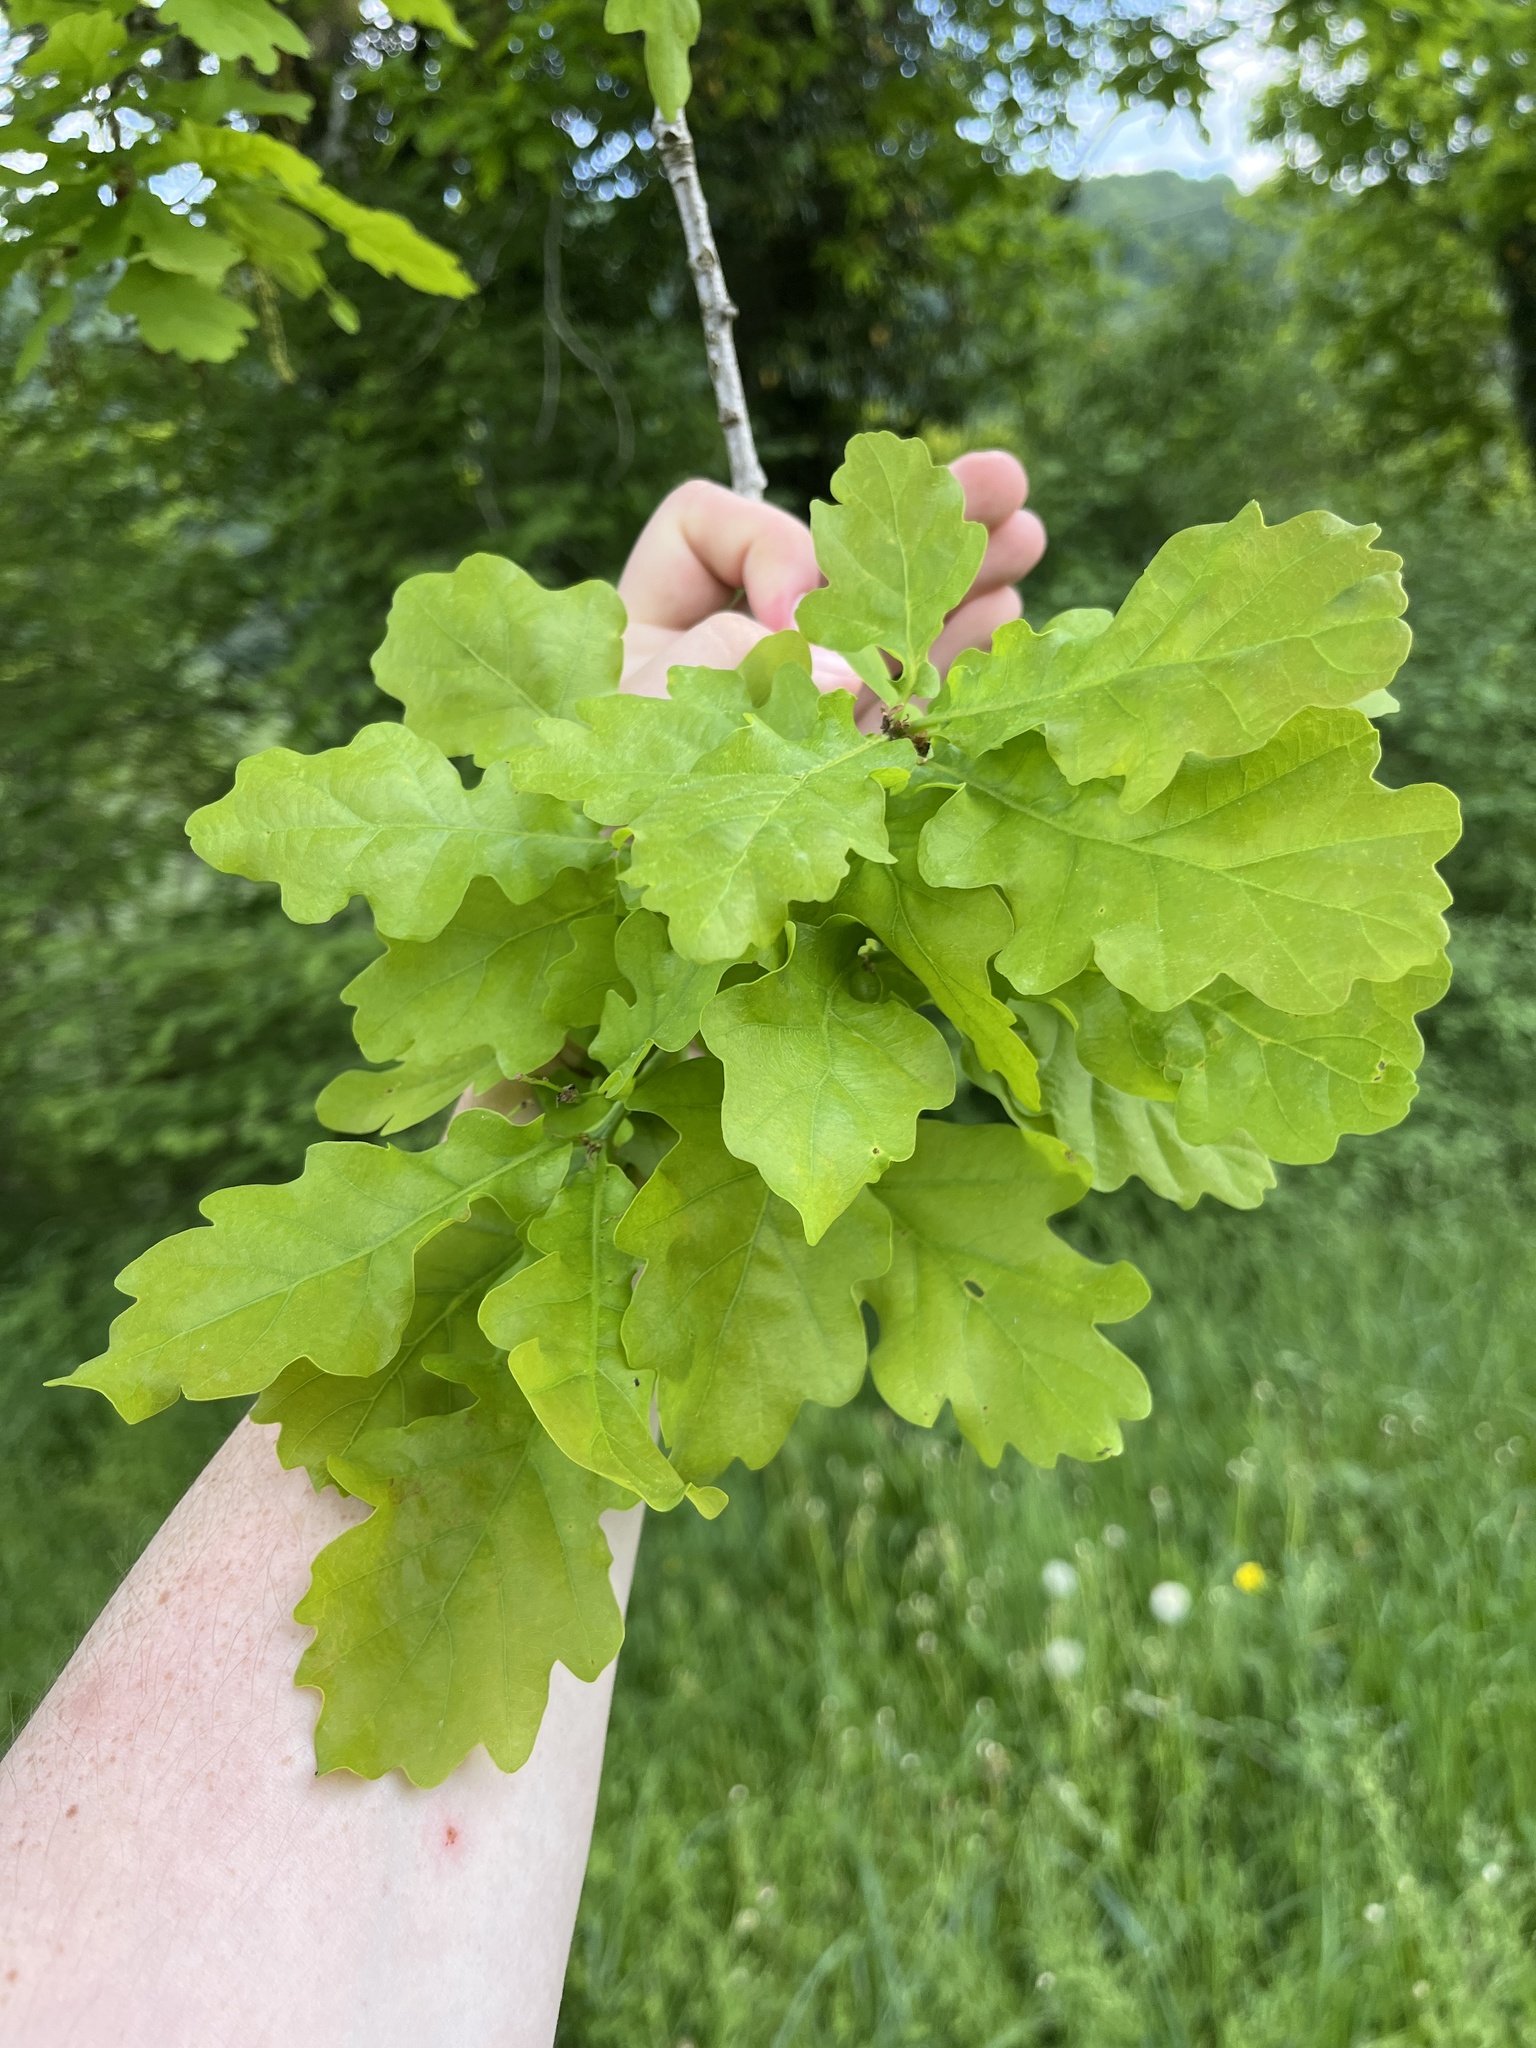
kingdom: Plantae
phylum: Tracheophyta
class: Magnoliopsida
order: Fagales
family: Fagaceae
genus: Quercus
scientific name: Quercus robur
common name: Pedunculate oak
